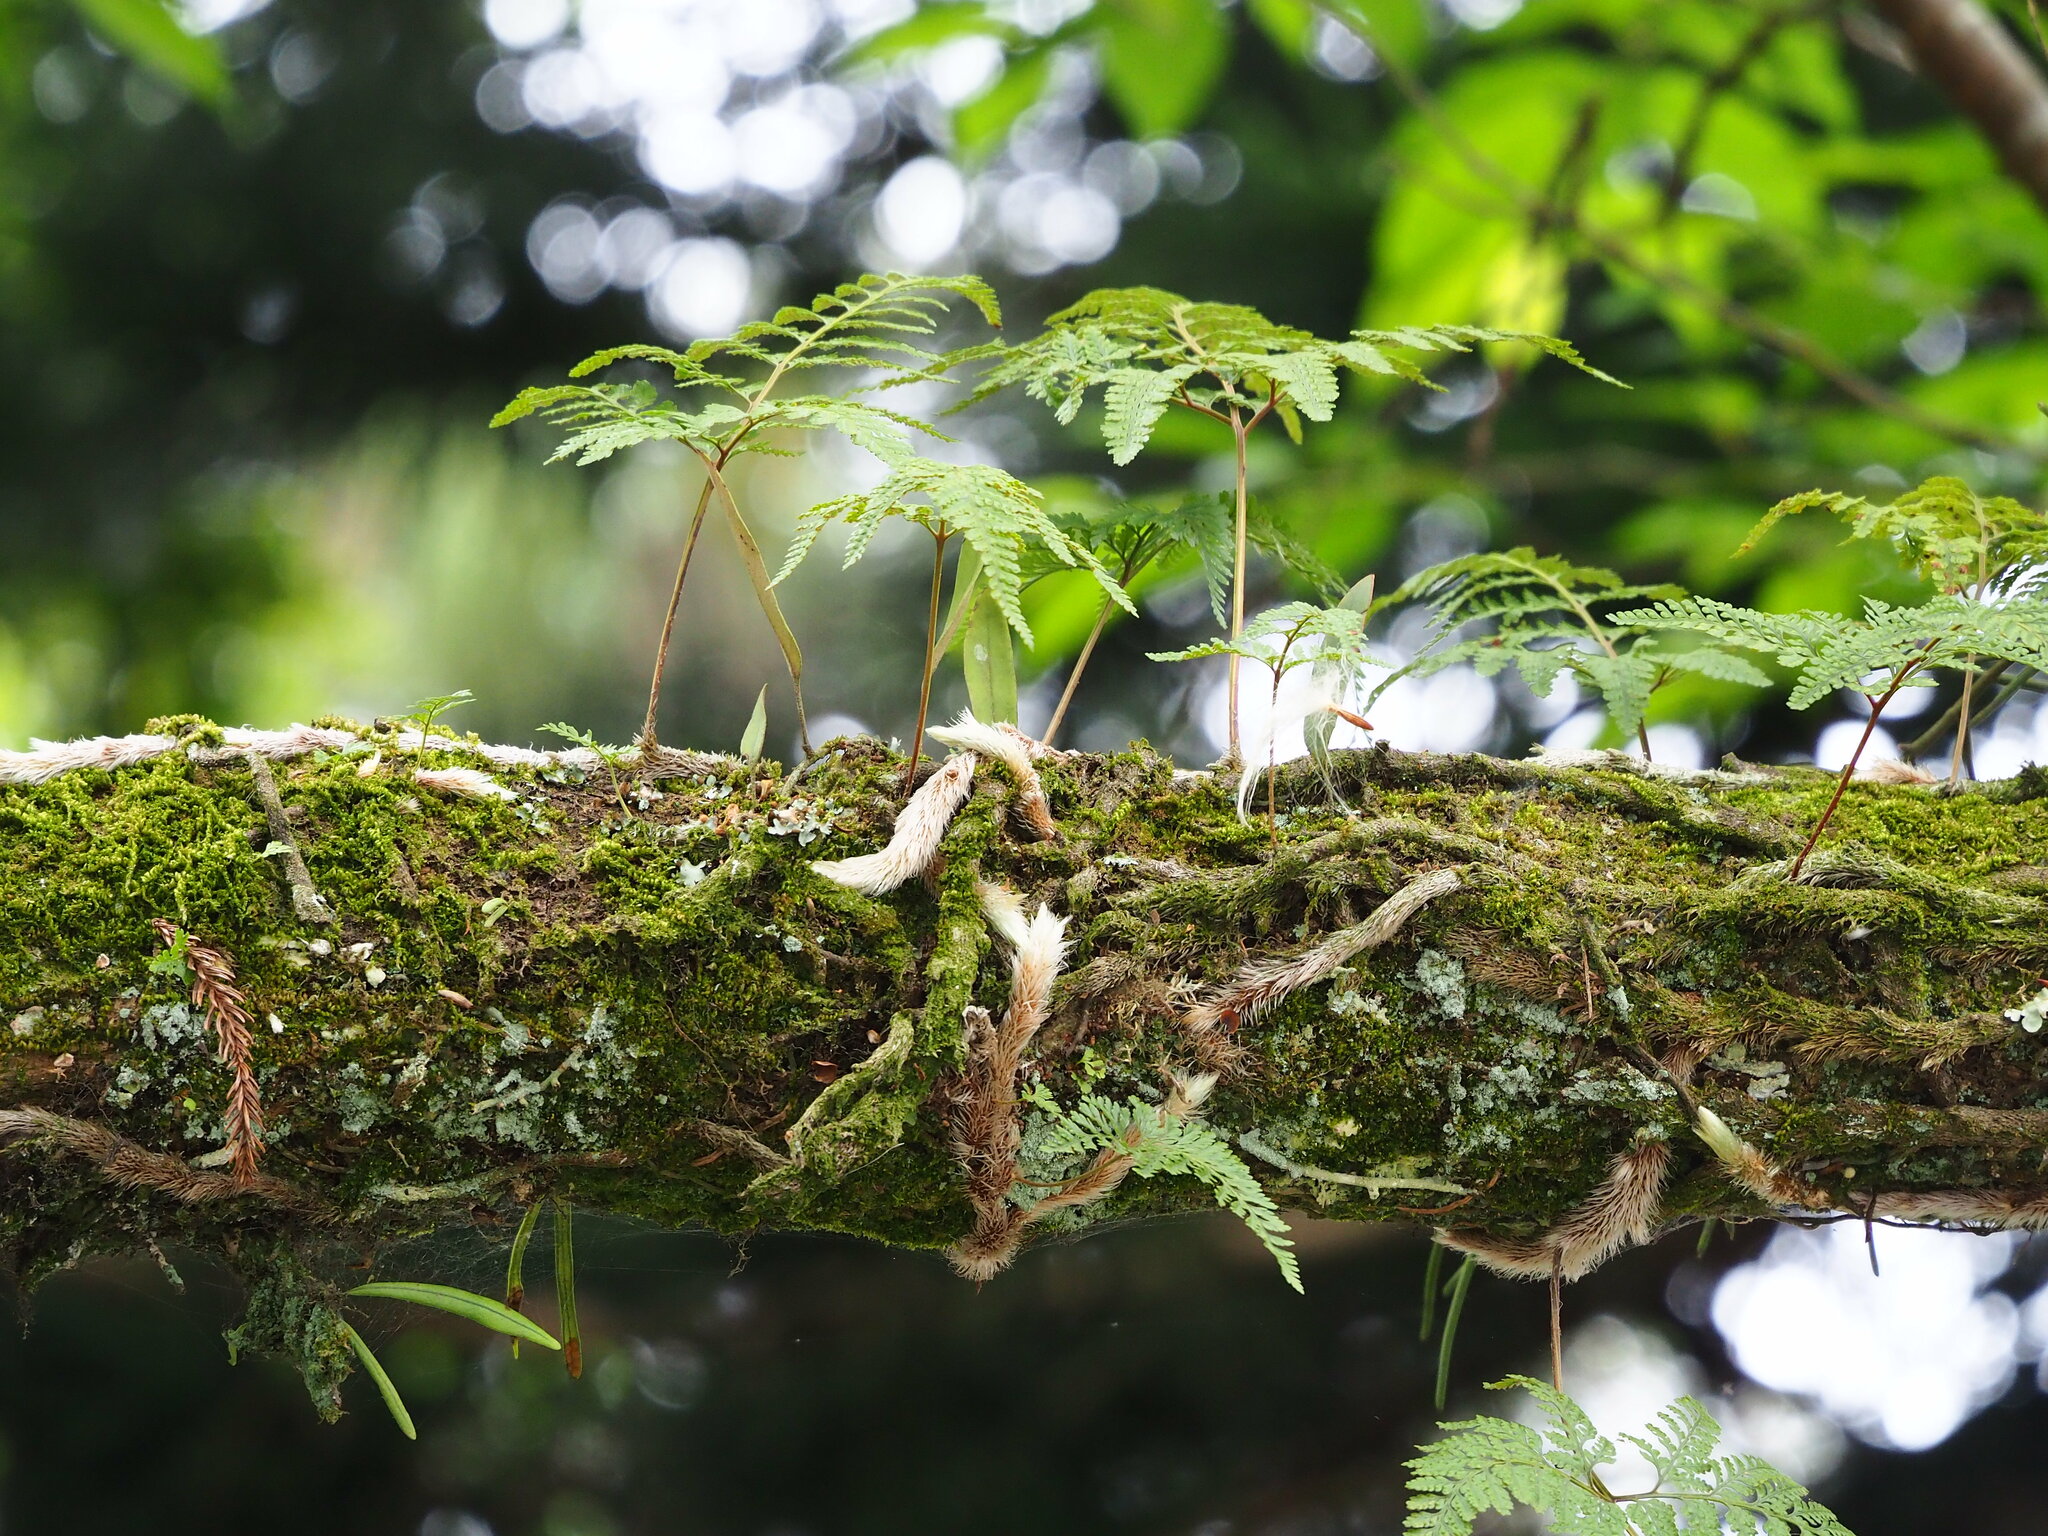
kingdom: Plantae
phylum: Tracheophyta
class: Polypodiopsida
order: Polypodiales
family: Davalliaceae
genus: Davallia
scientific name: Davallia griffithiana
